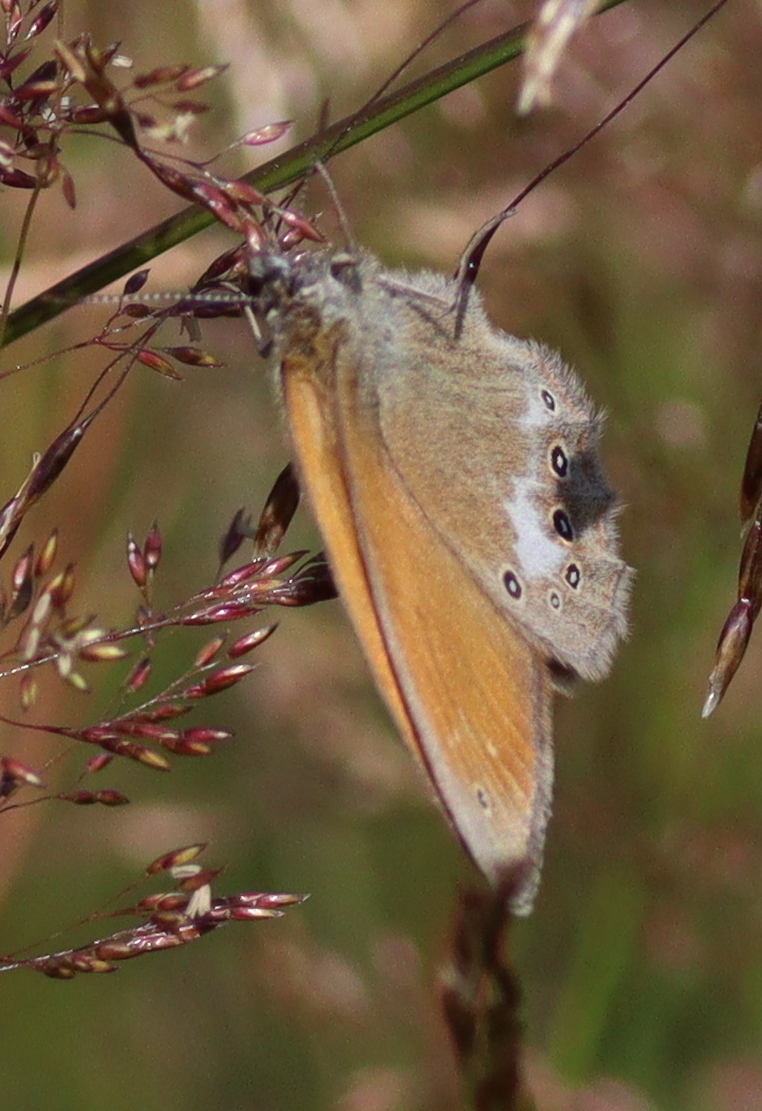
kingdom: Animalia
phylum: Arthropoda
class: Insecta
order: Lepidoptera
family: Nymphalidae
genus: Coenonympha
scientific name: Coenonympha iphis
